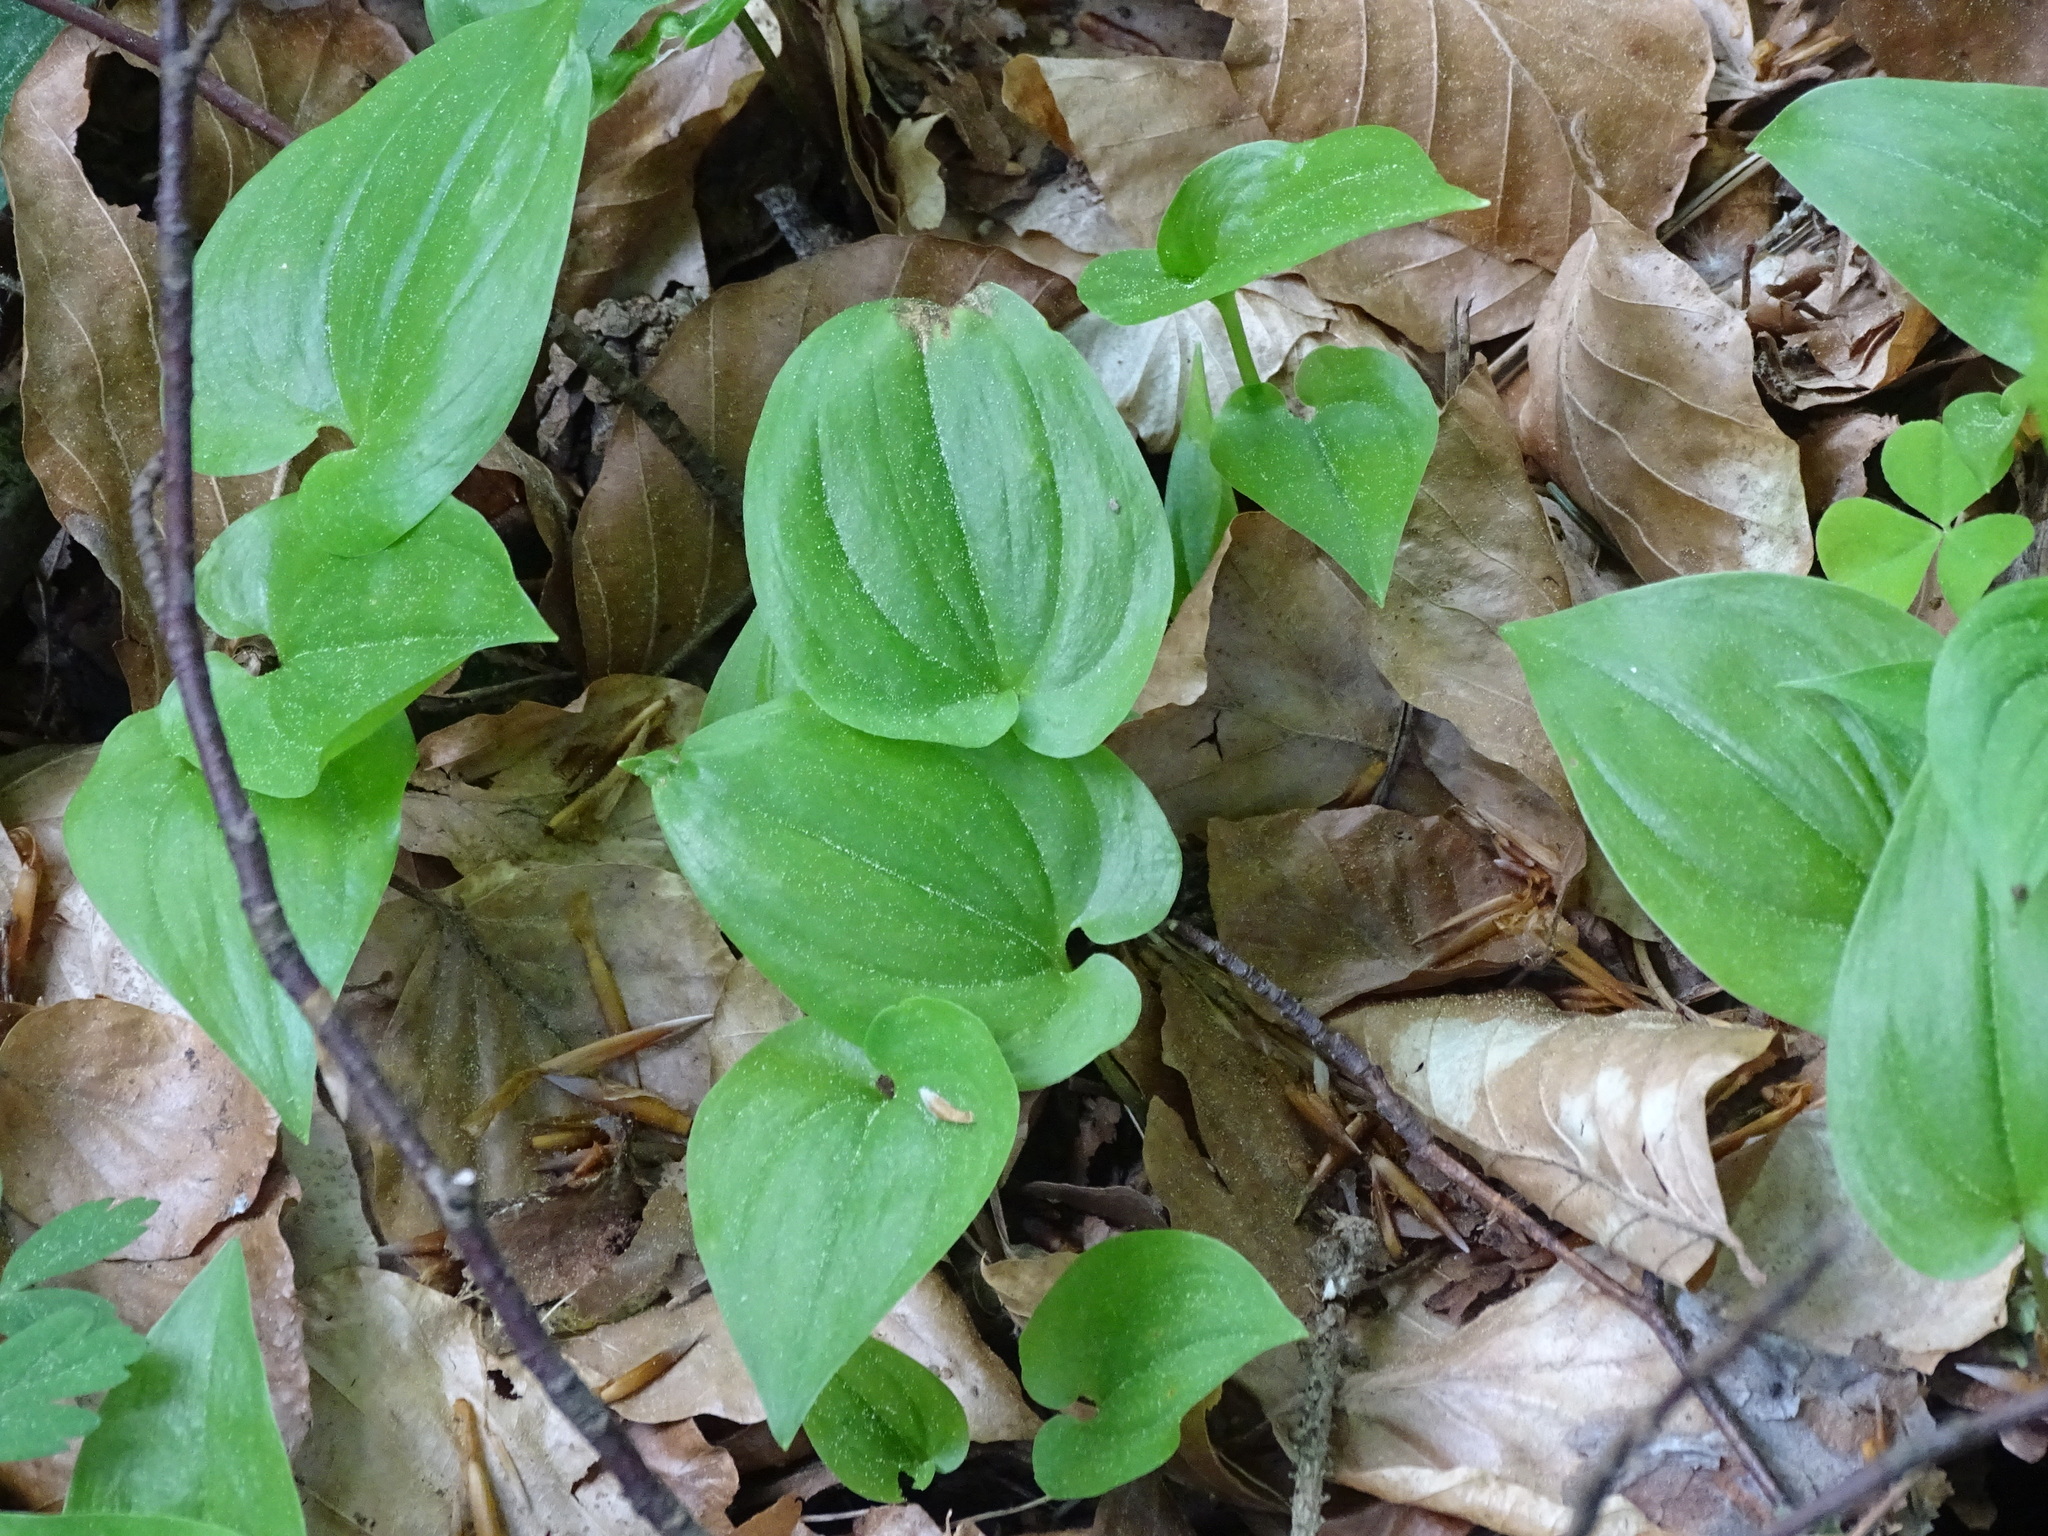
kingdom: Plantae
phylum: Tracheophyta
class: Liliopsida
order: Asparagales
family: Asparagaceae
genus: Maianthemum
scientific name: Maianthemum bifolium
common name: May lily
